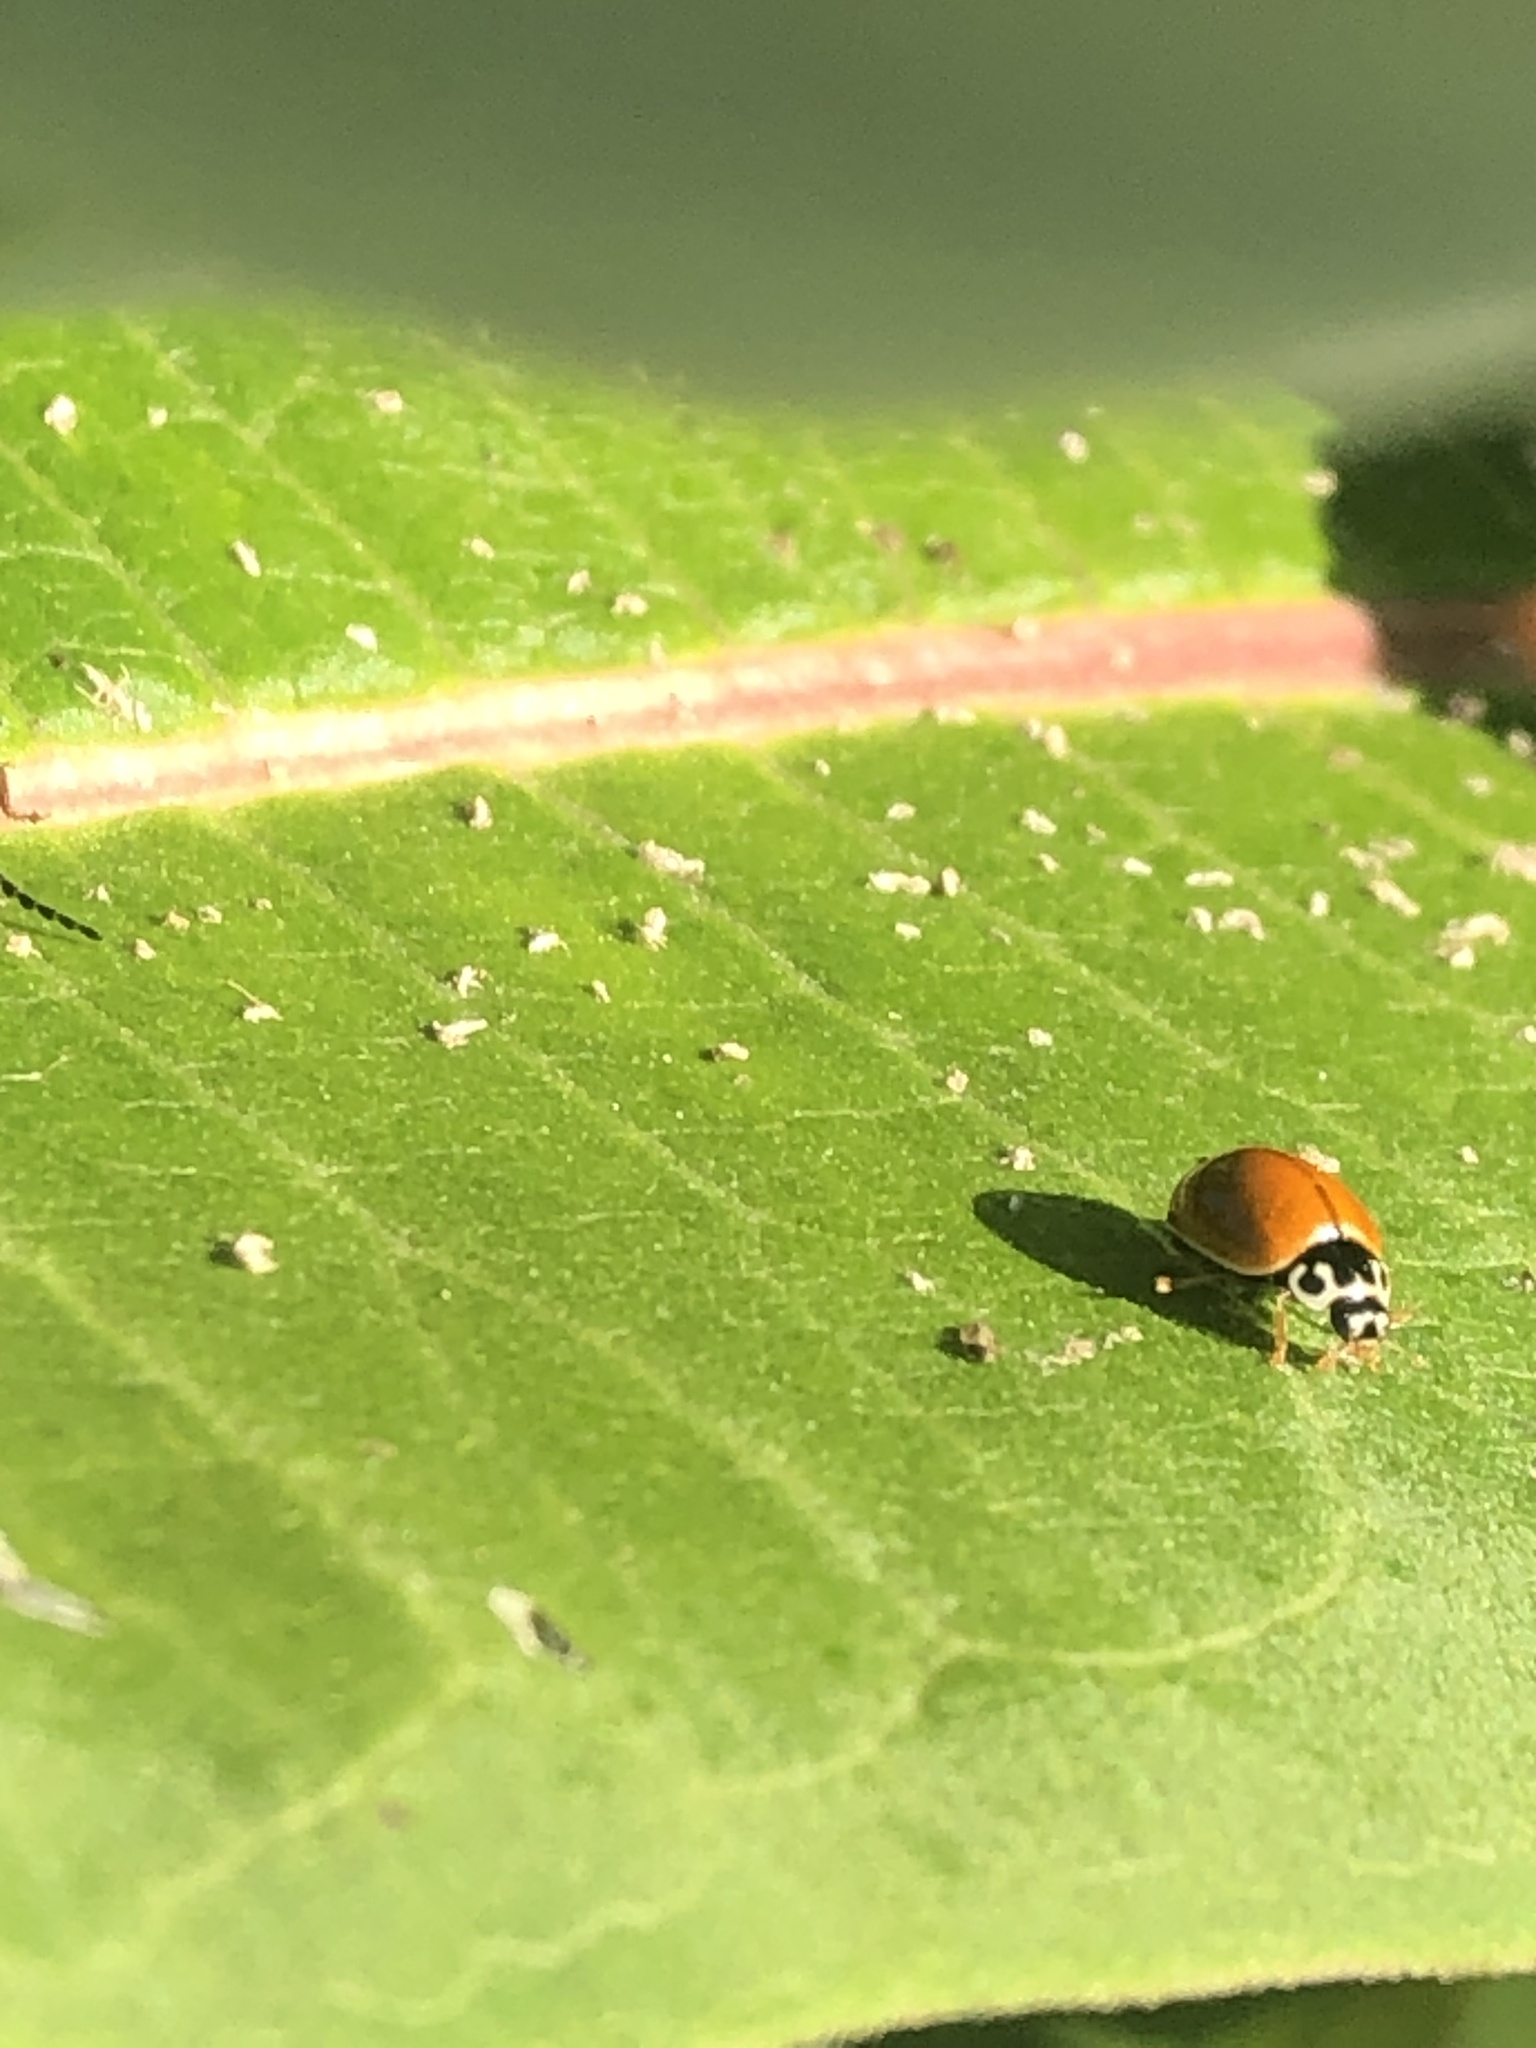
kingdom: Animalia
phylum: Arthropoda
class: Insecta
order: Coleoptera
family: Coccinellidae
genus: Cycloneda
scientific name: Cycloneda munda
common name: Polished lady beetle
